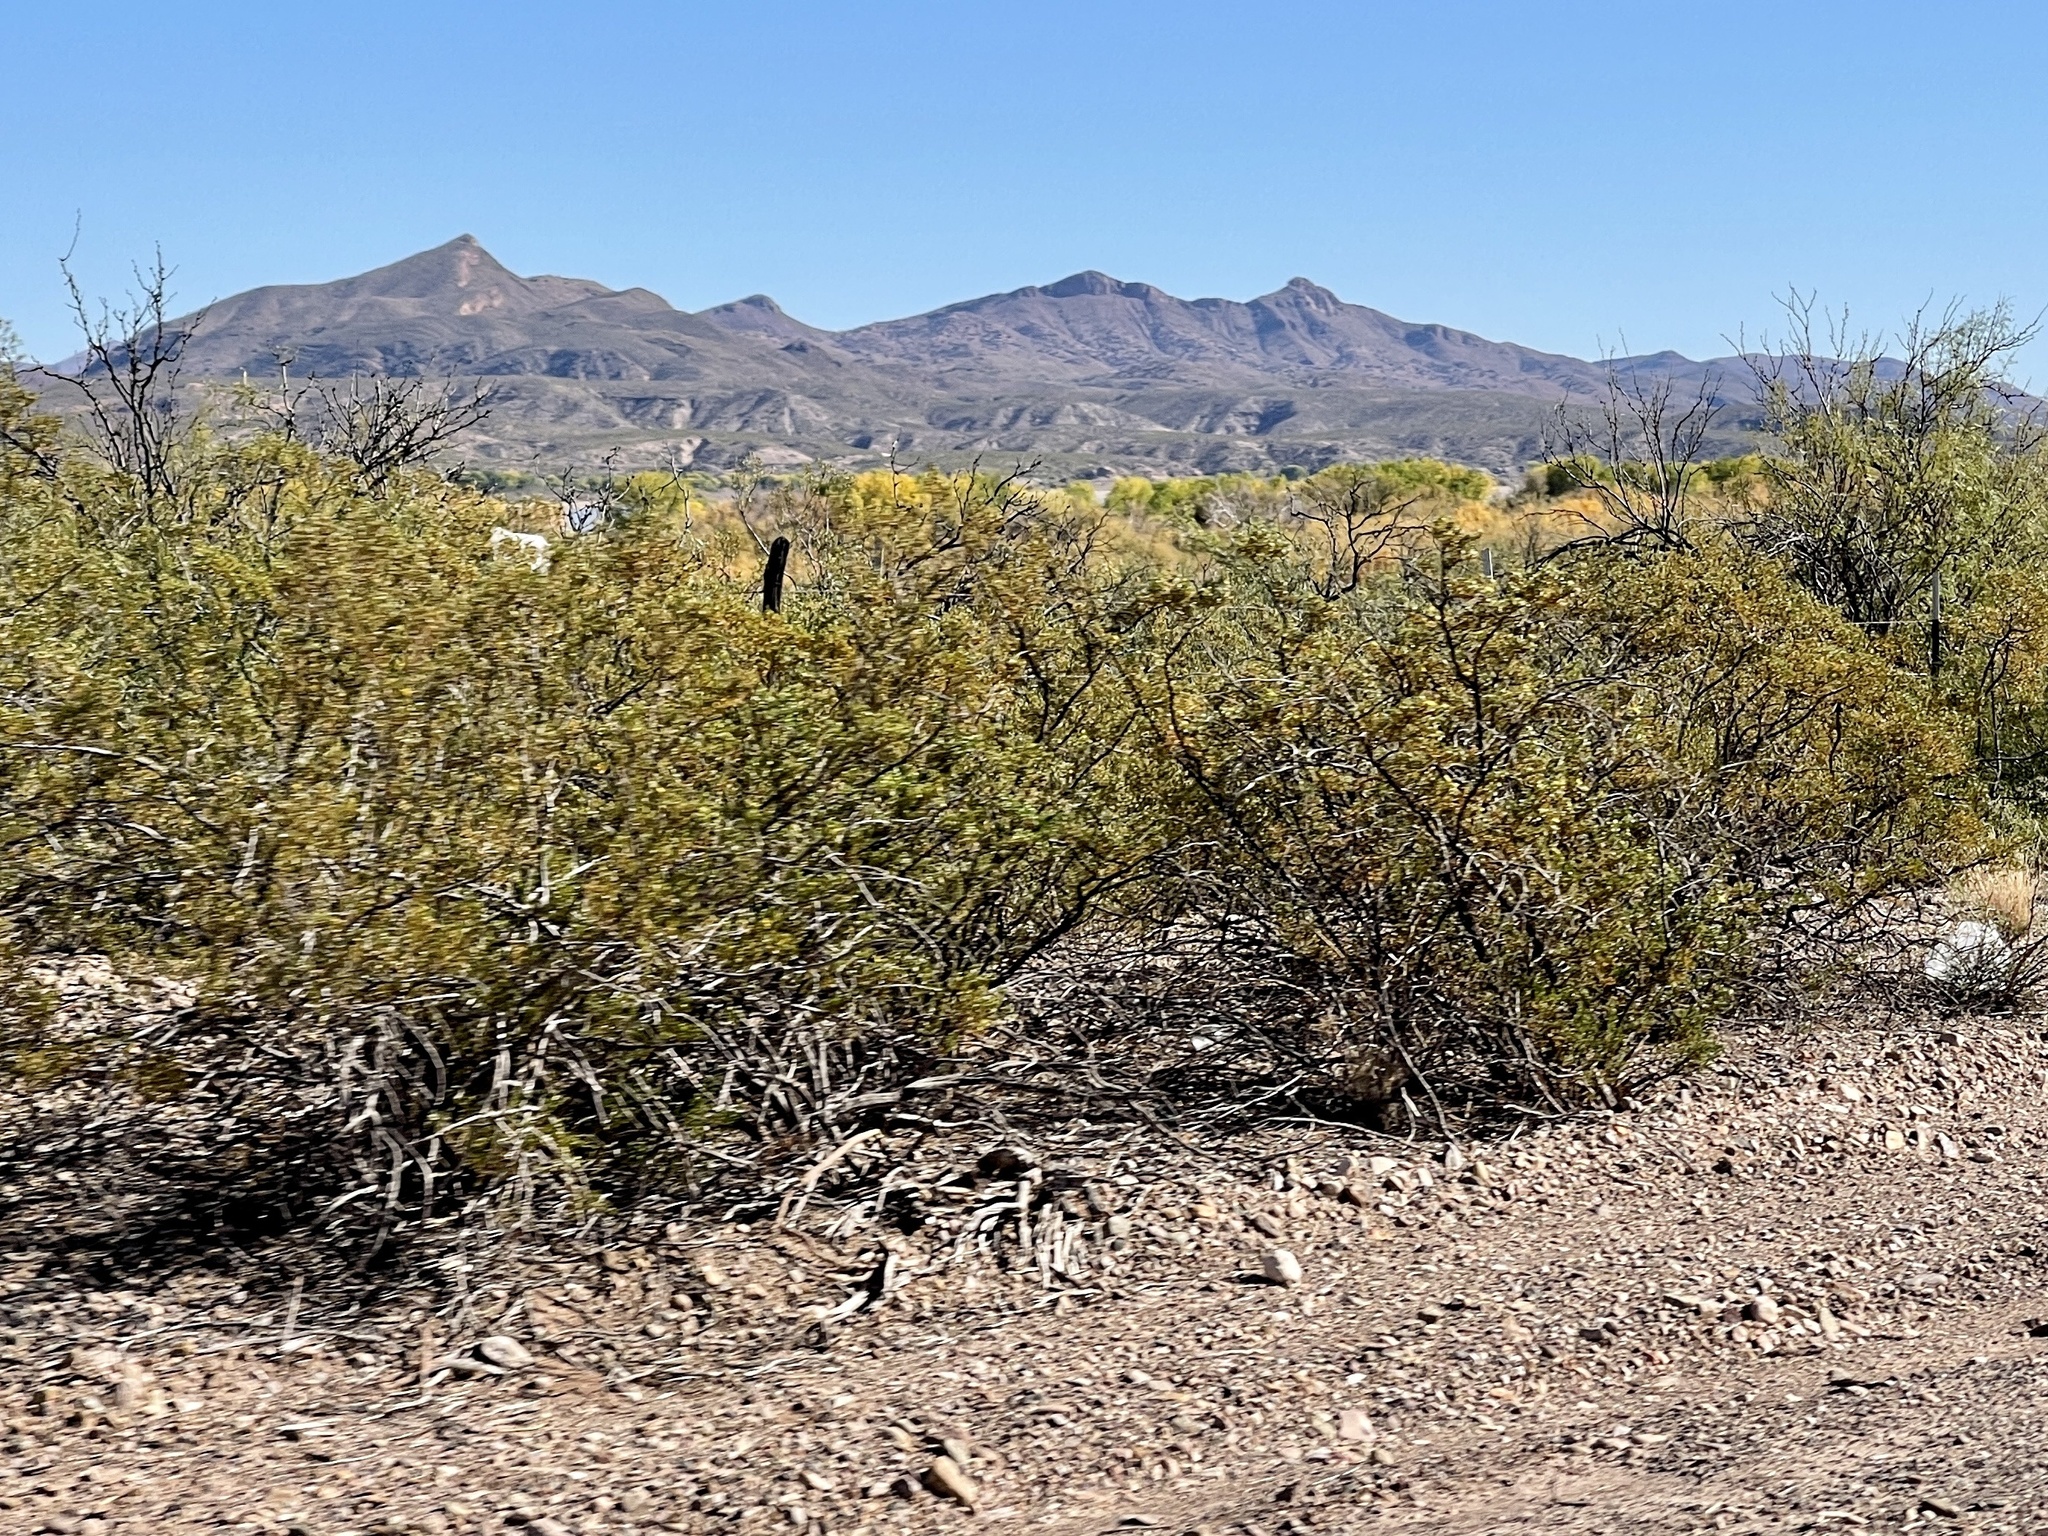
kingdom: Plantae
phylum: Tracheophyta
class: Magnoliopsida
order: Zygophyllales
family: Zygophyllaceae
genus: Larrea
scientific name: Larrea tridentata
